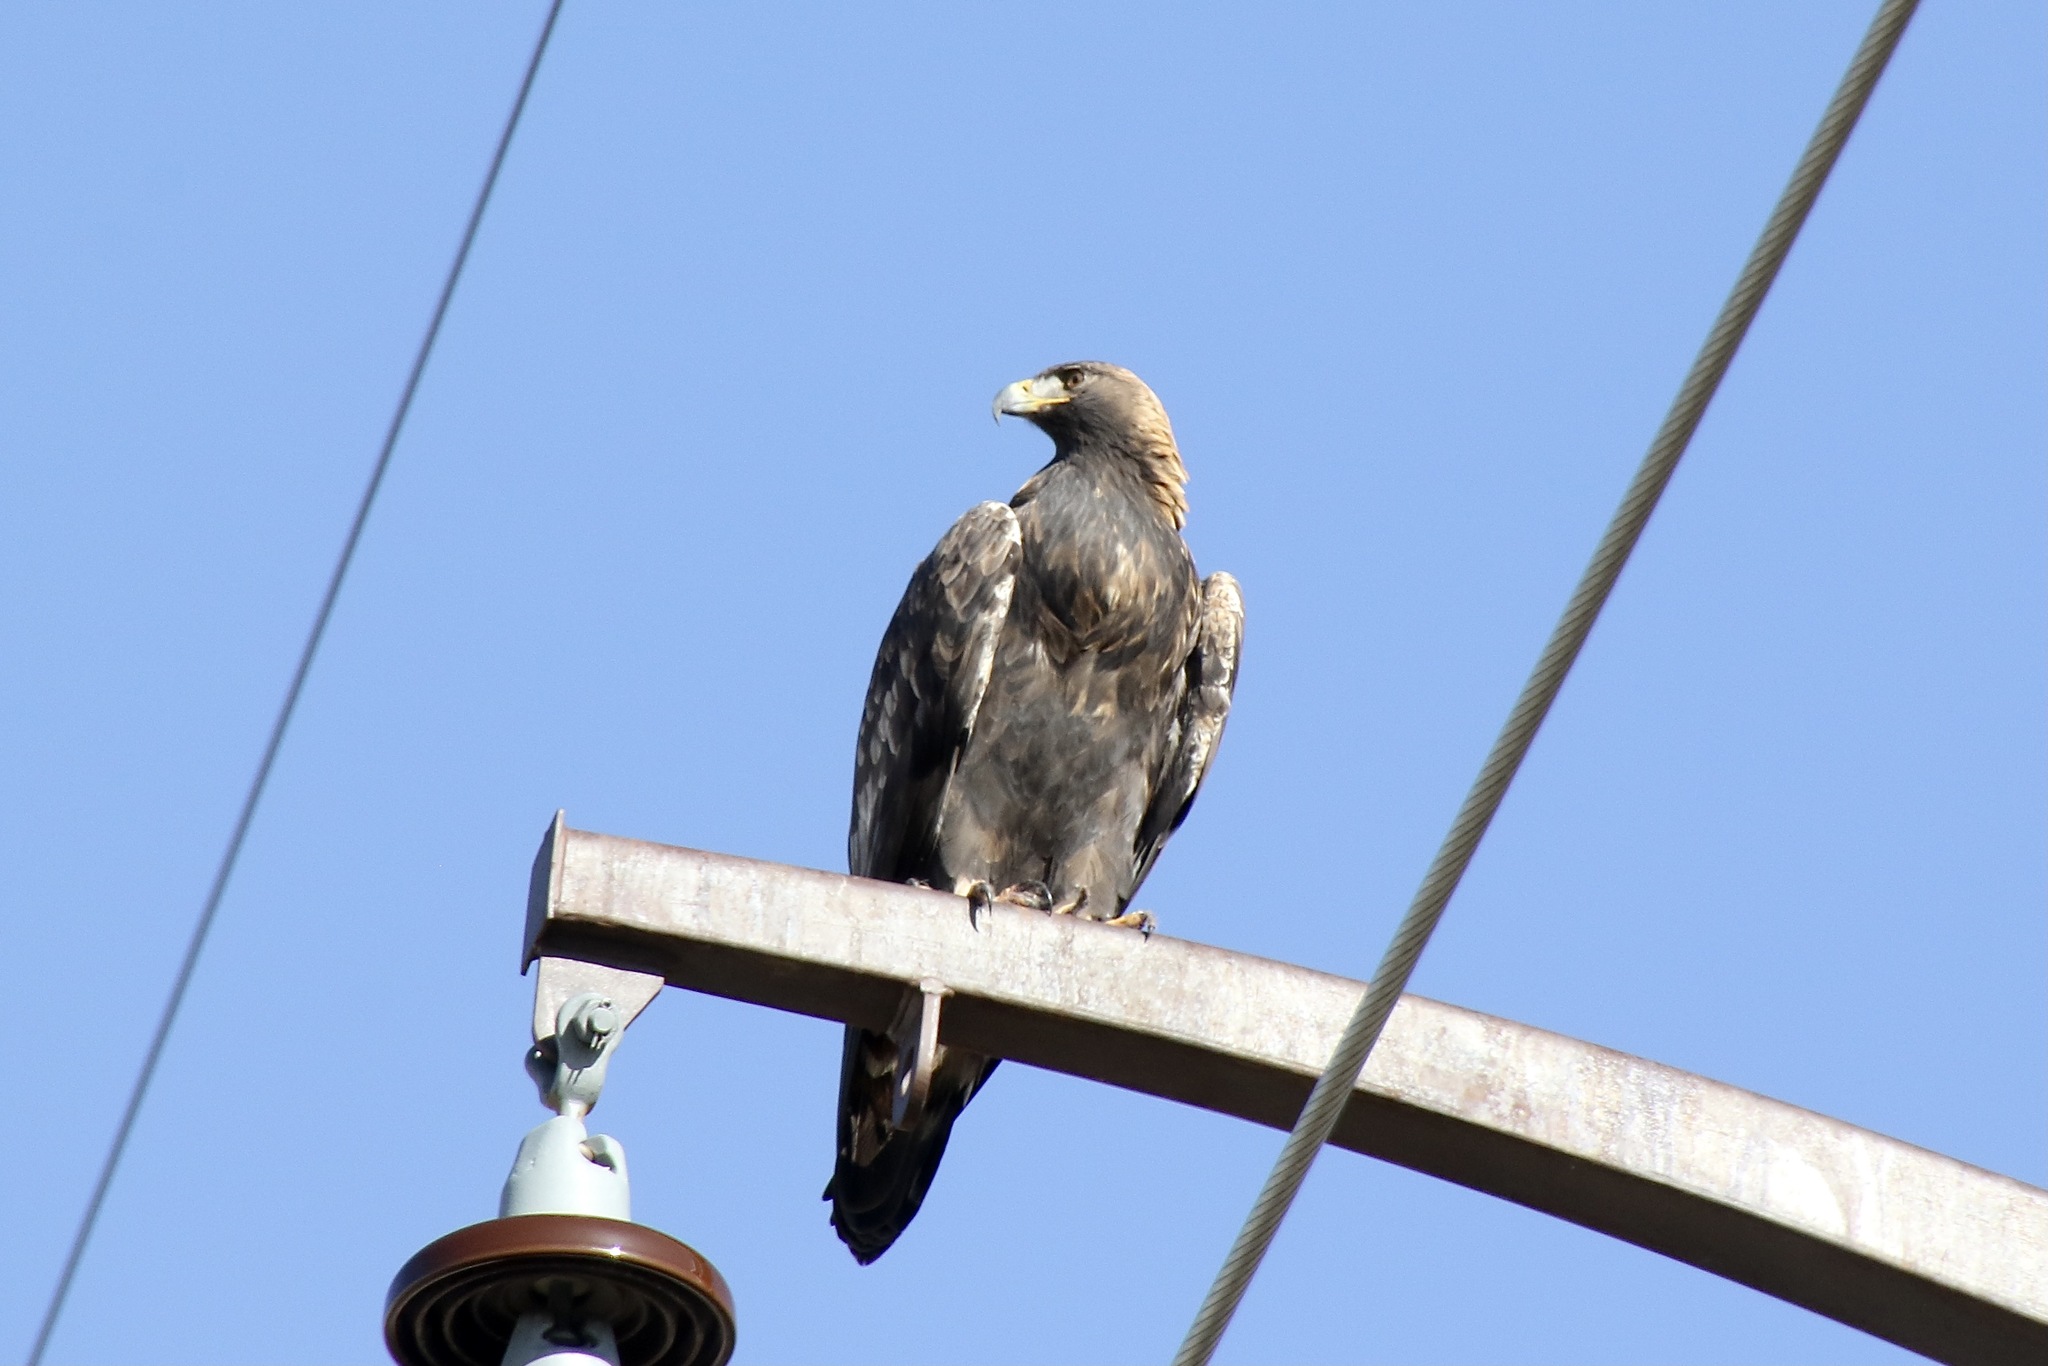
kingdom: Animalia
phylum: Chordata
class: Aves
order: Accipitriformes
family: Accipitridae
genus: Aquila
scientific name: Aquila chrysaetos
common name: Golden eagle
